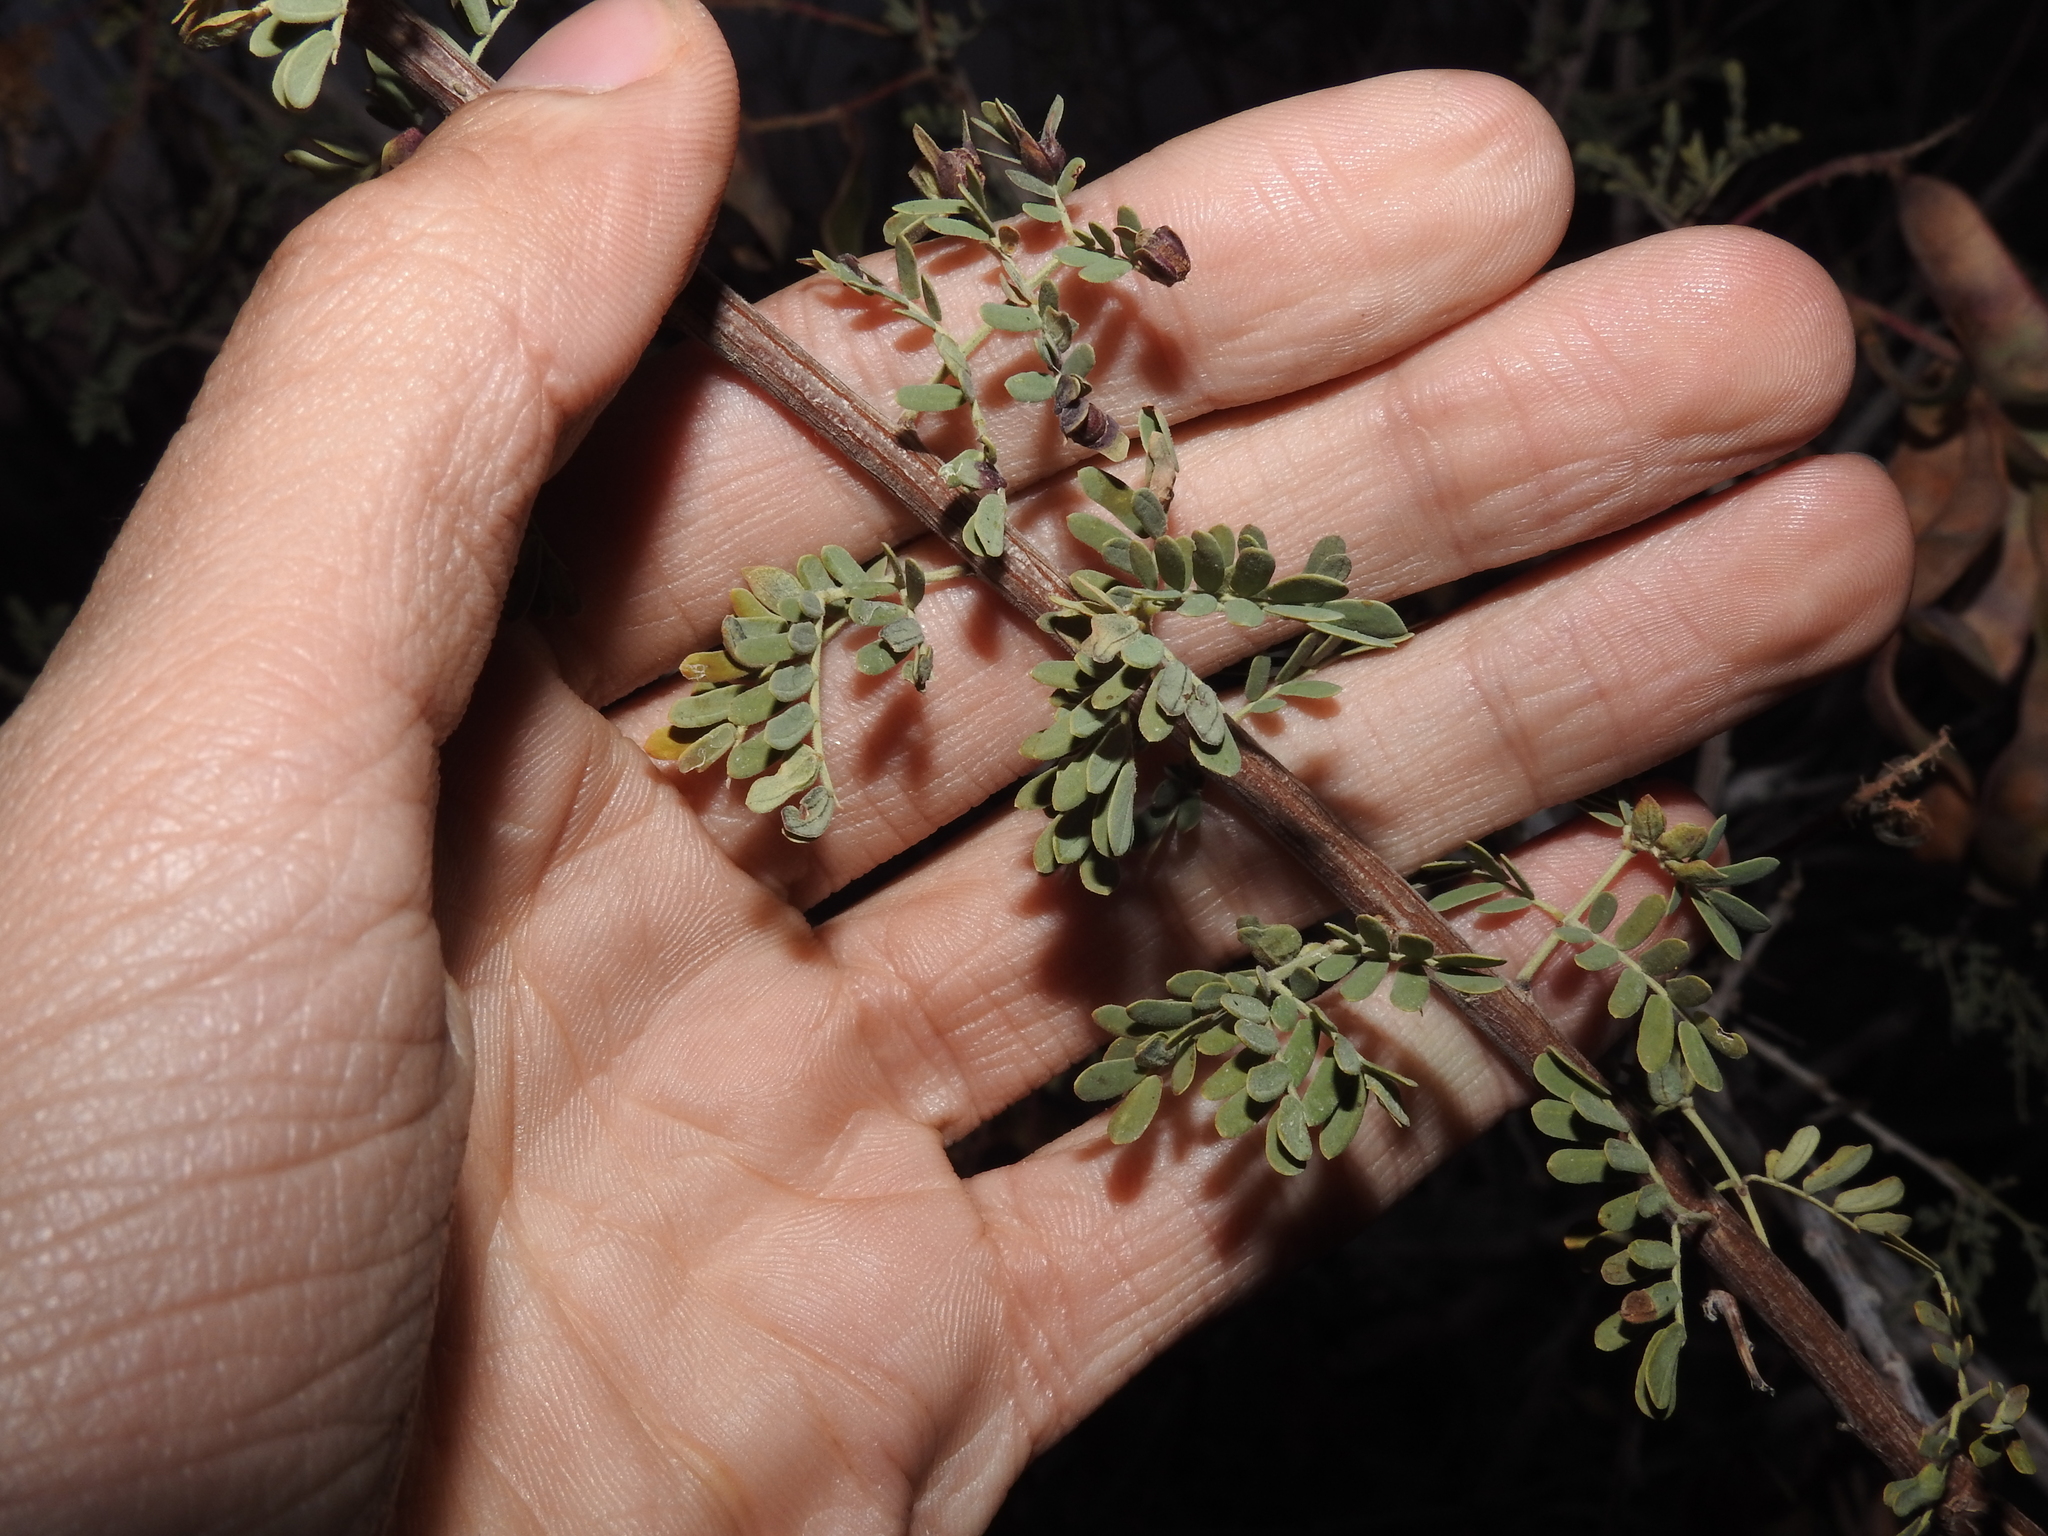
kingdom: Plantae
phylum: Tracheophyta
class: Magnoliopsida
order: Fabales
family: Fabaceae
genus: Senegalia
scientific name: Senegalia greggii
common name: Texas-mimosa
